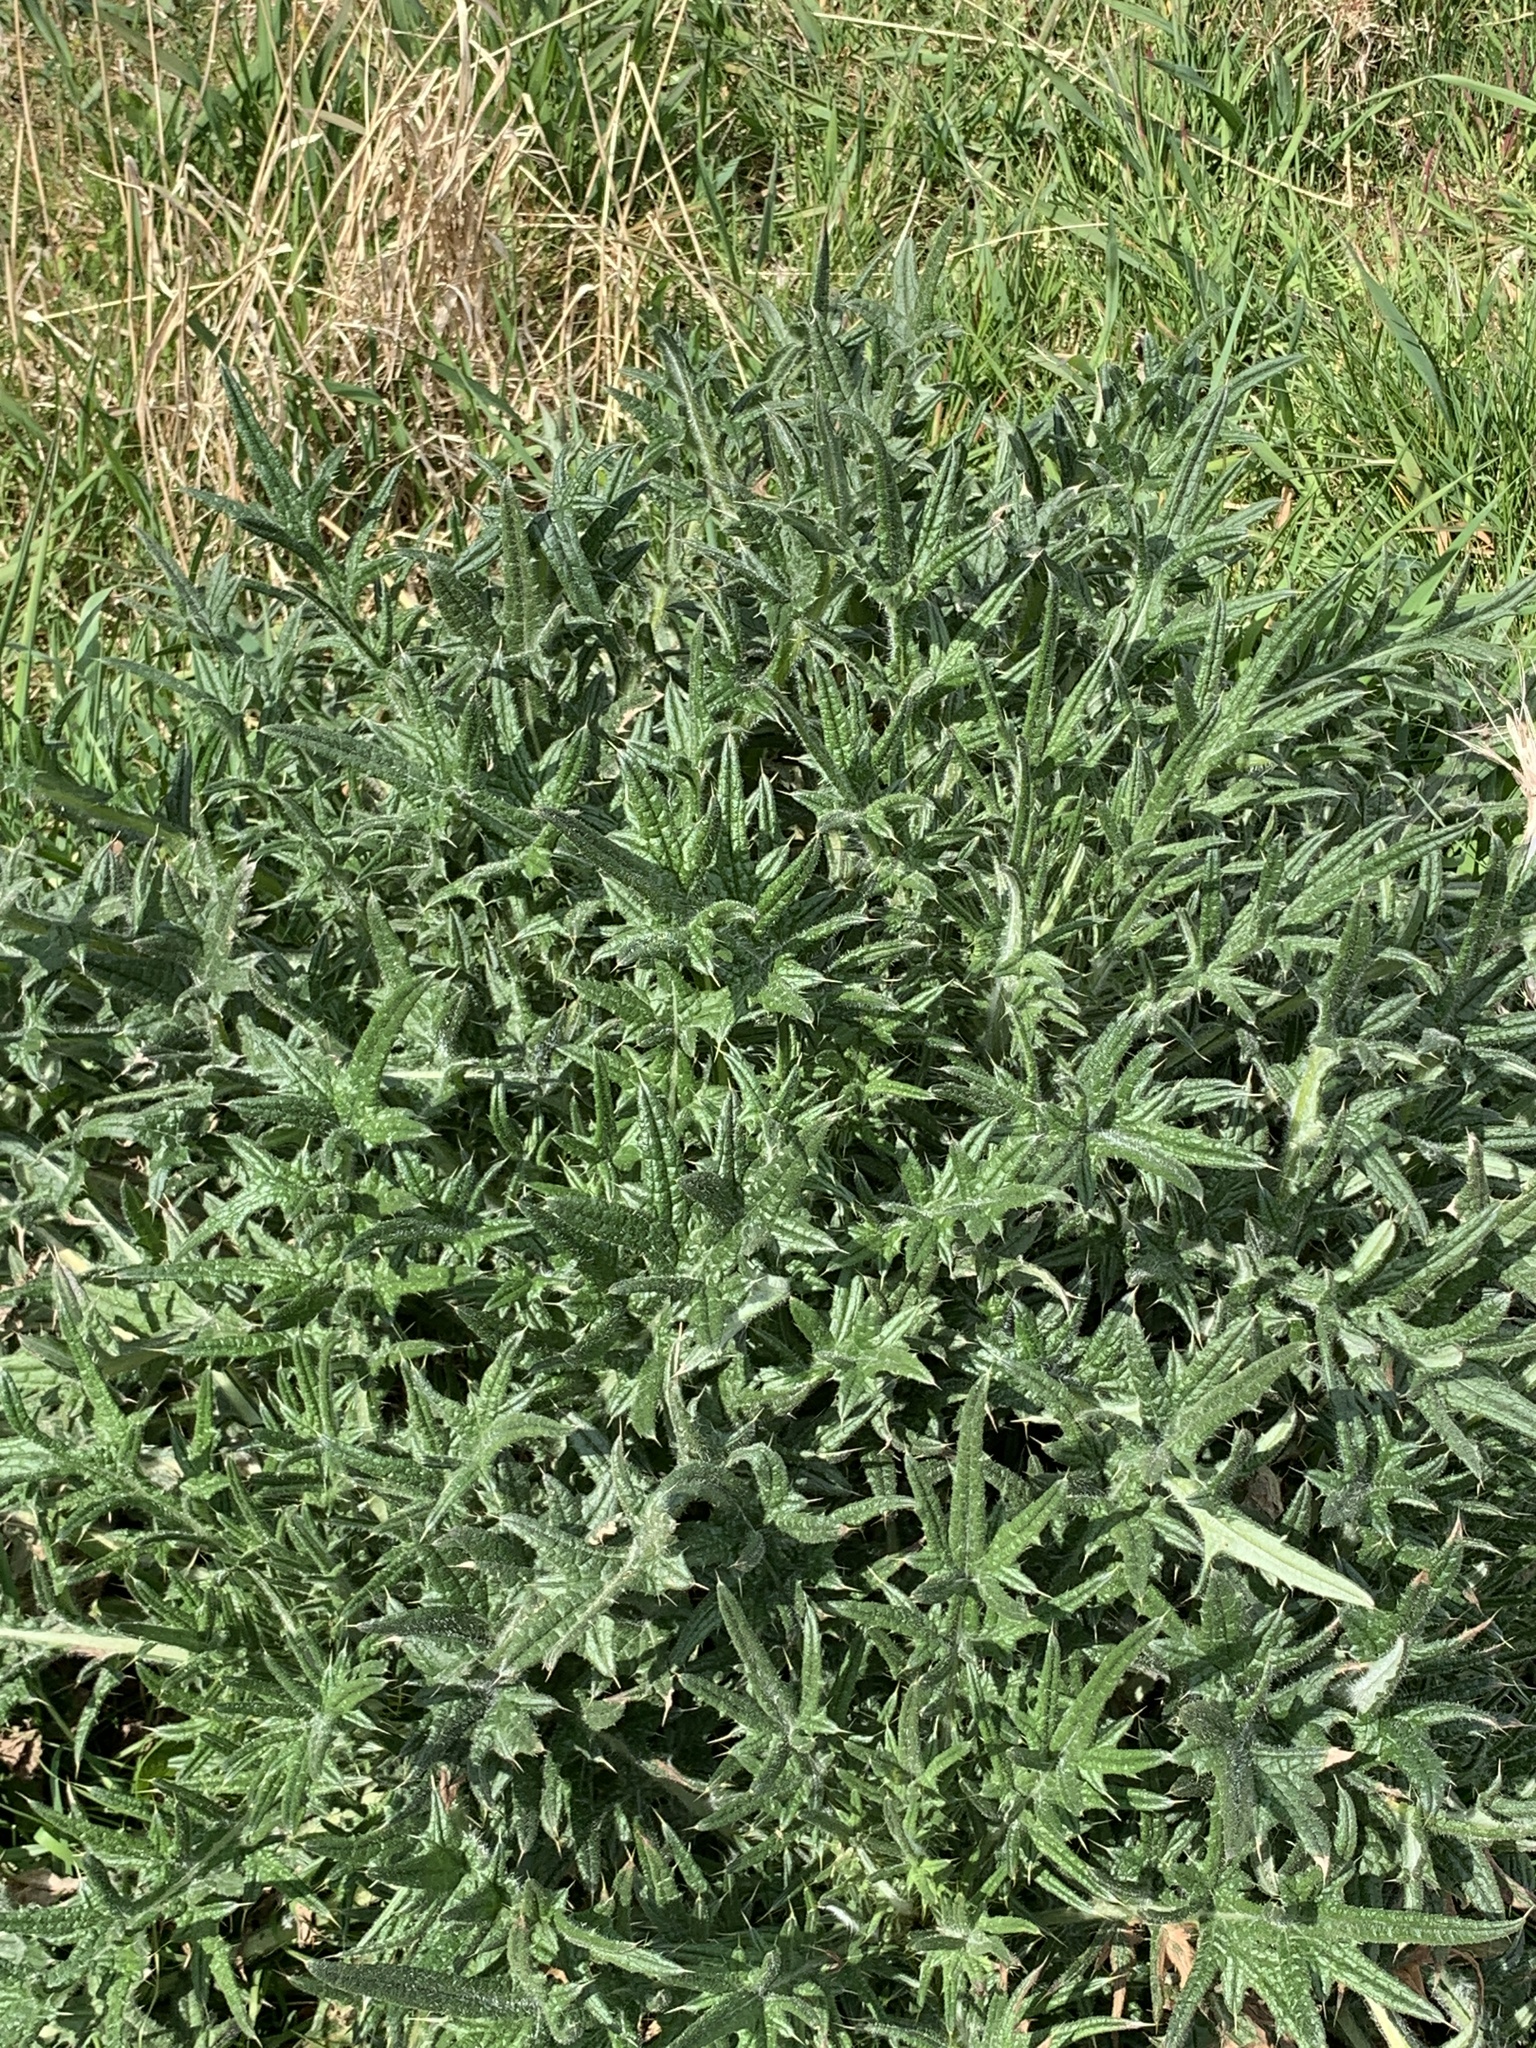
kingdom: Plantae
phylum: Tracheophyta
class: Magnoliopsida
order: Asterales
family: Asteraceae
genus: Cirsium
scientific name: Cirsium vulgare
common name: Bull thistle
